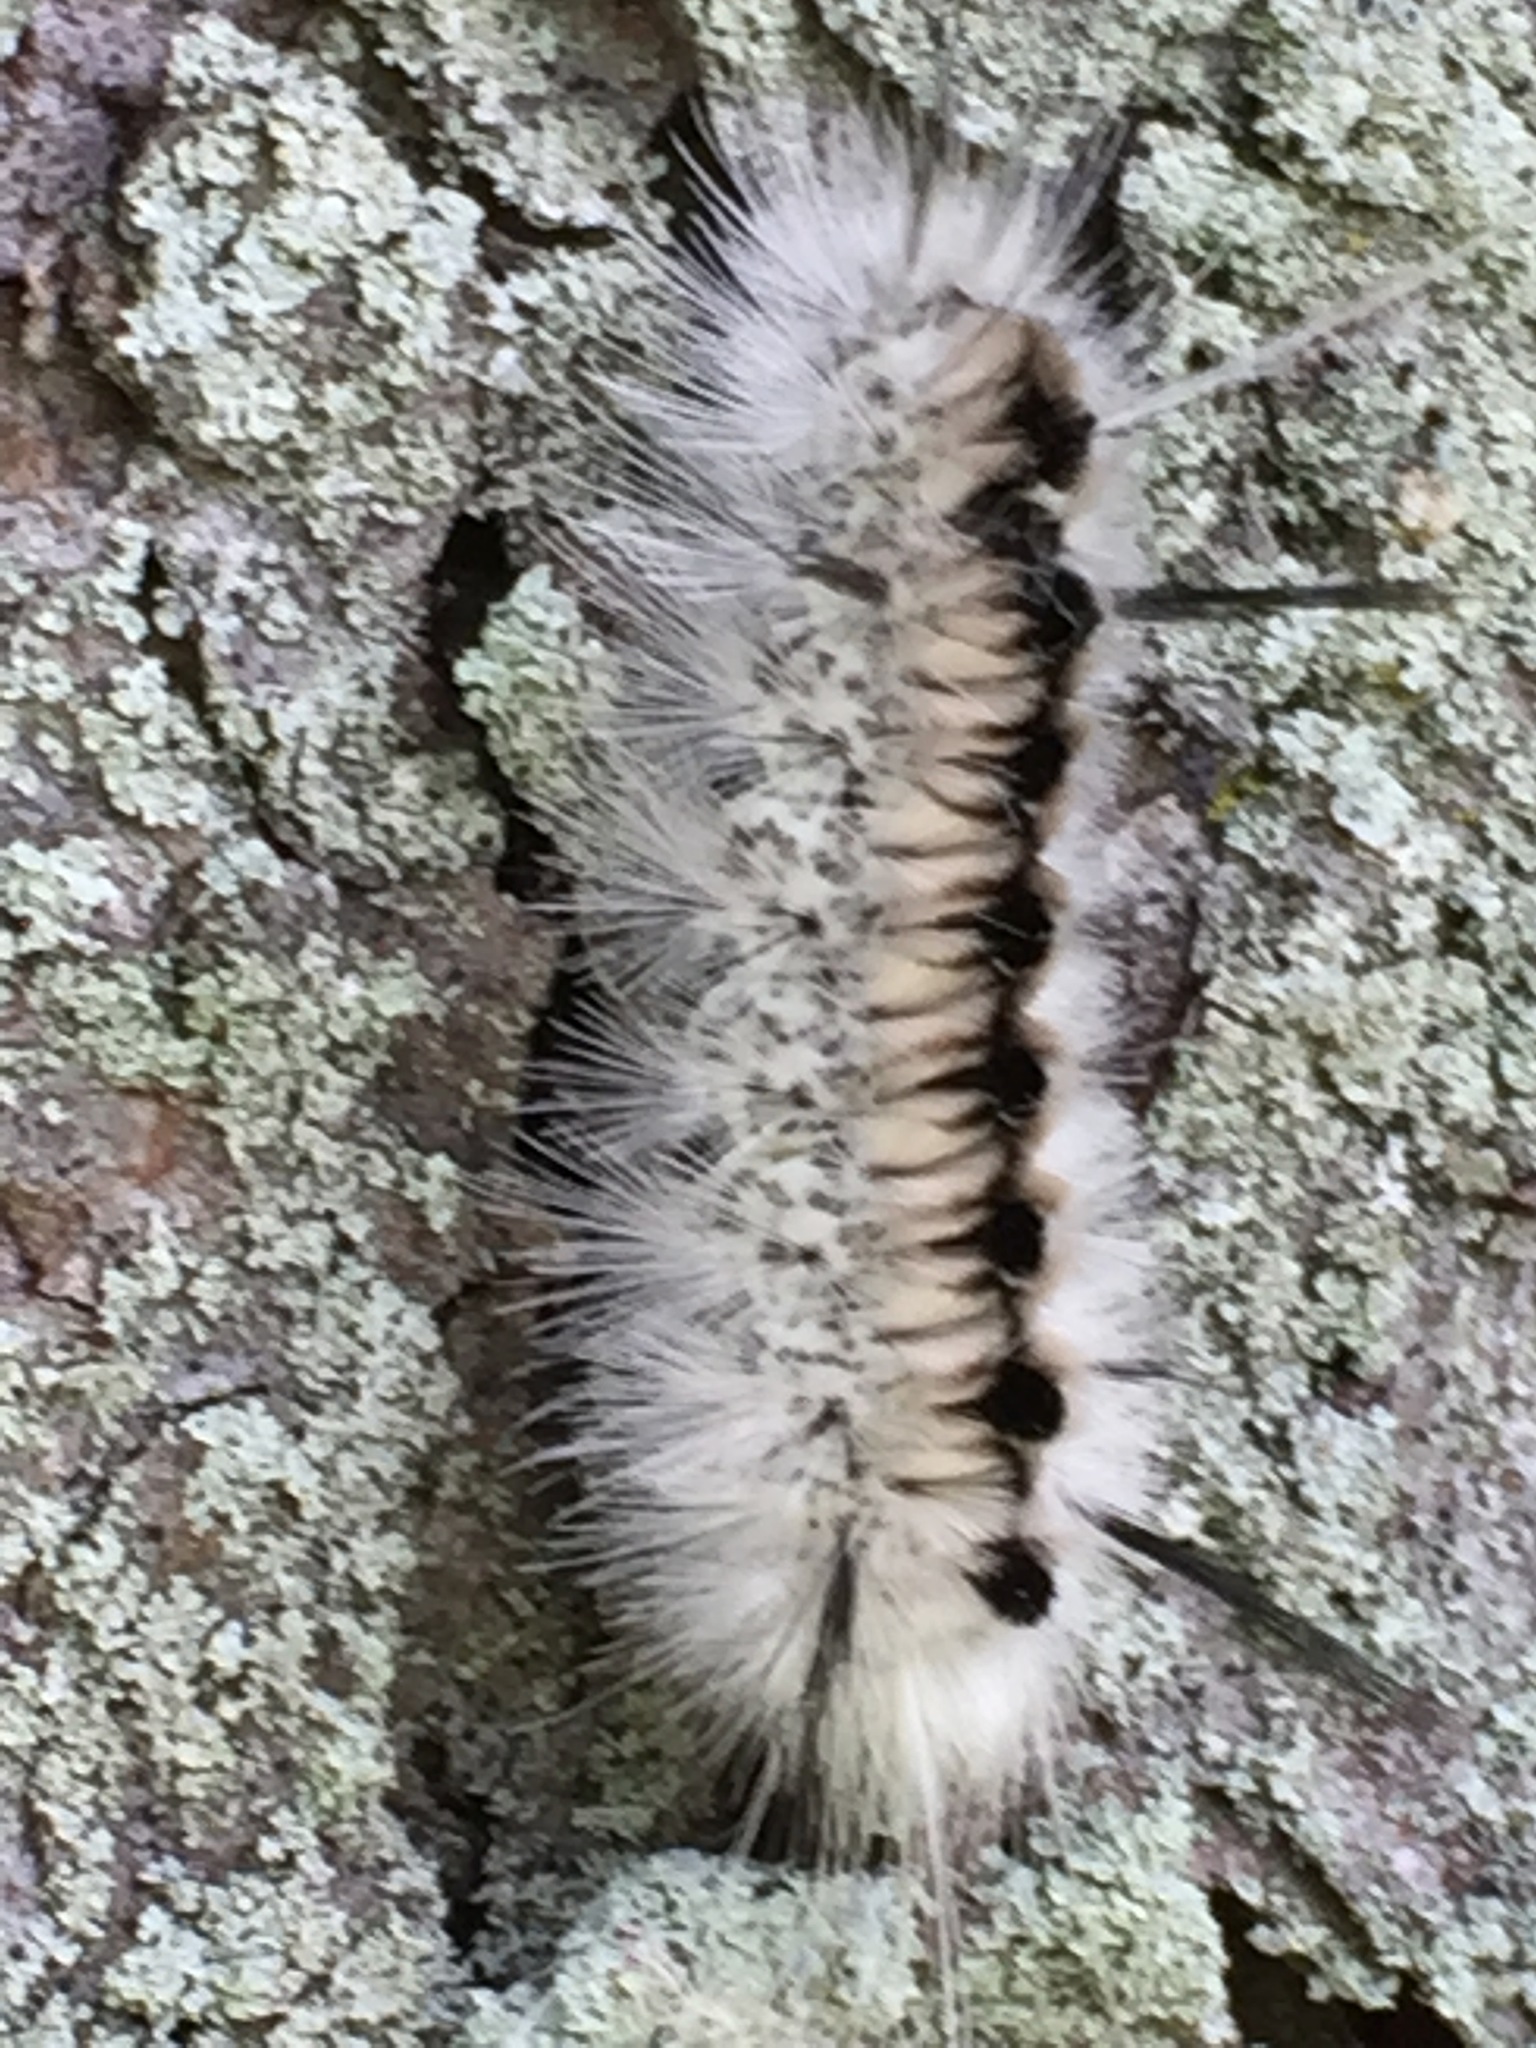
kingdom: Animalia
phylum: Arthropoda
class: Insecta
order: Lepidoptera
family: Erebidae
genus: Lophocampa
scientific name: Lophocampa caryae
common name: Hickory tussock moth
